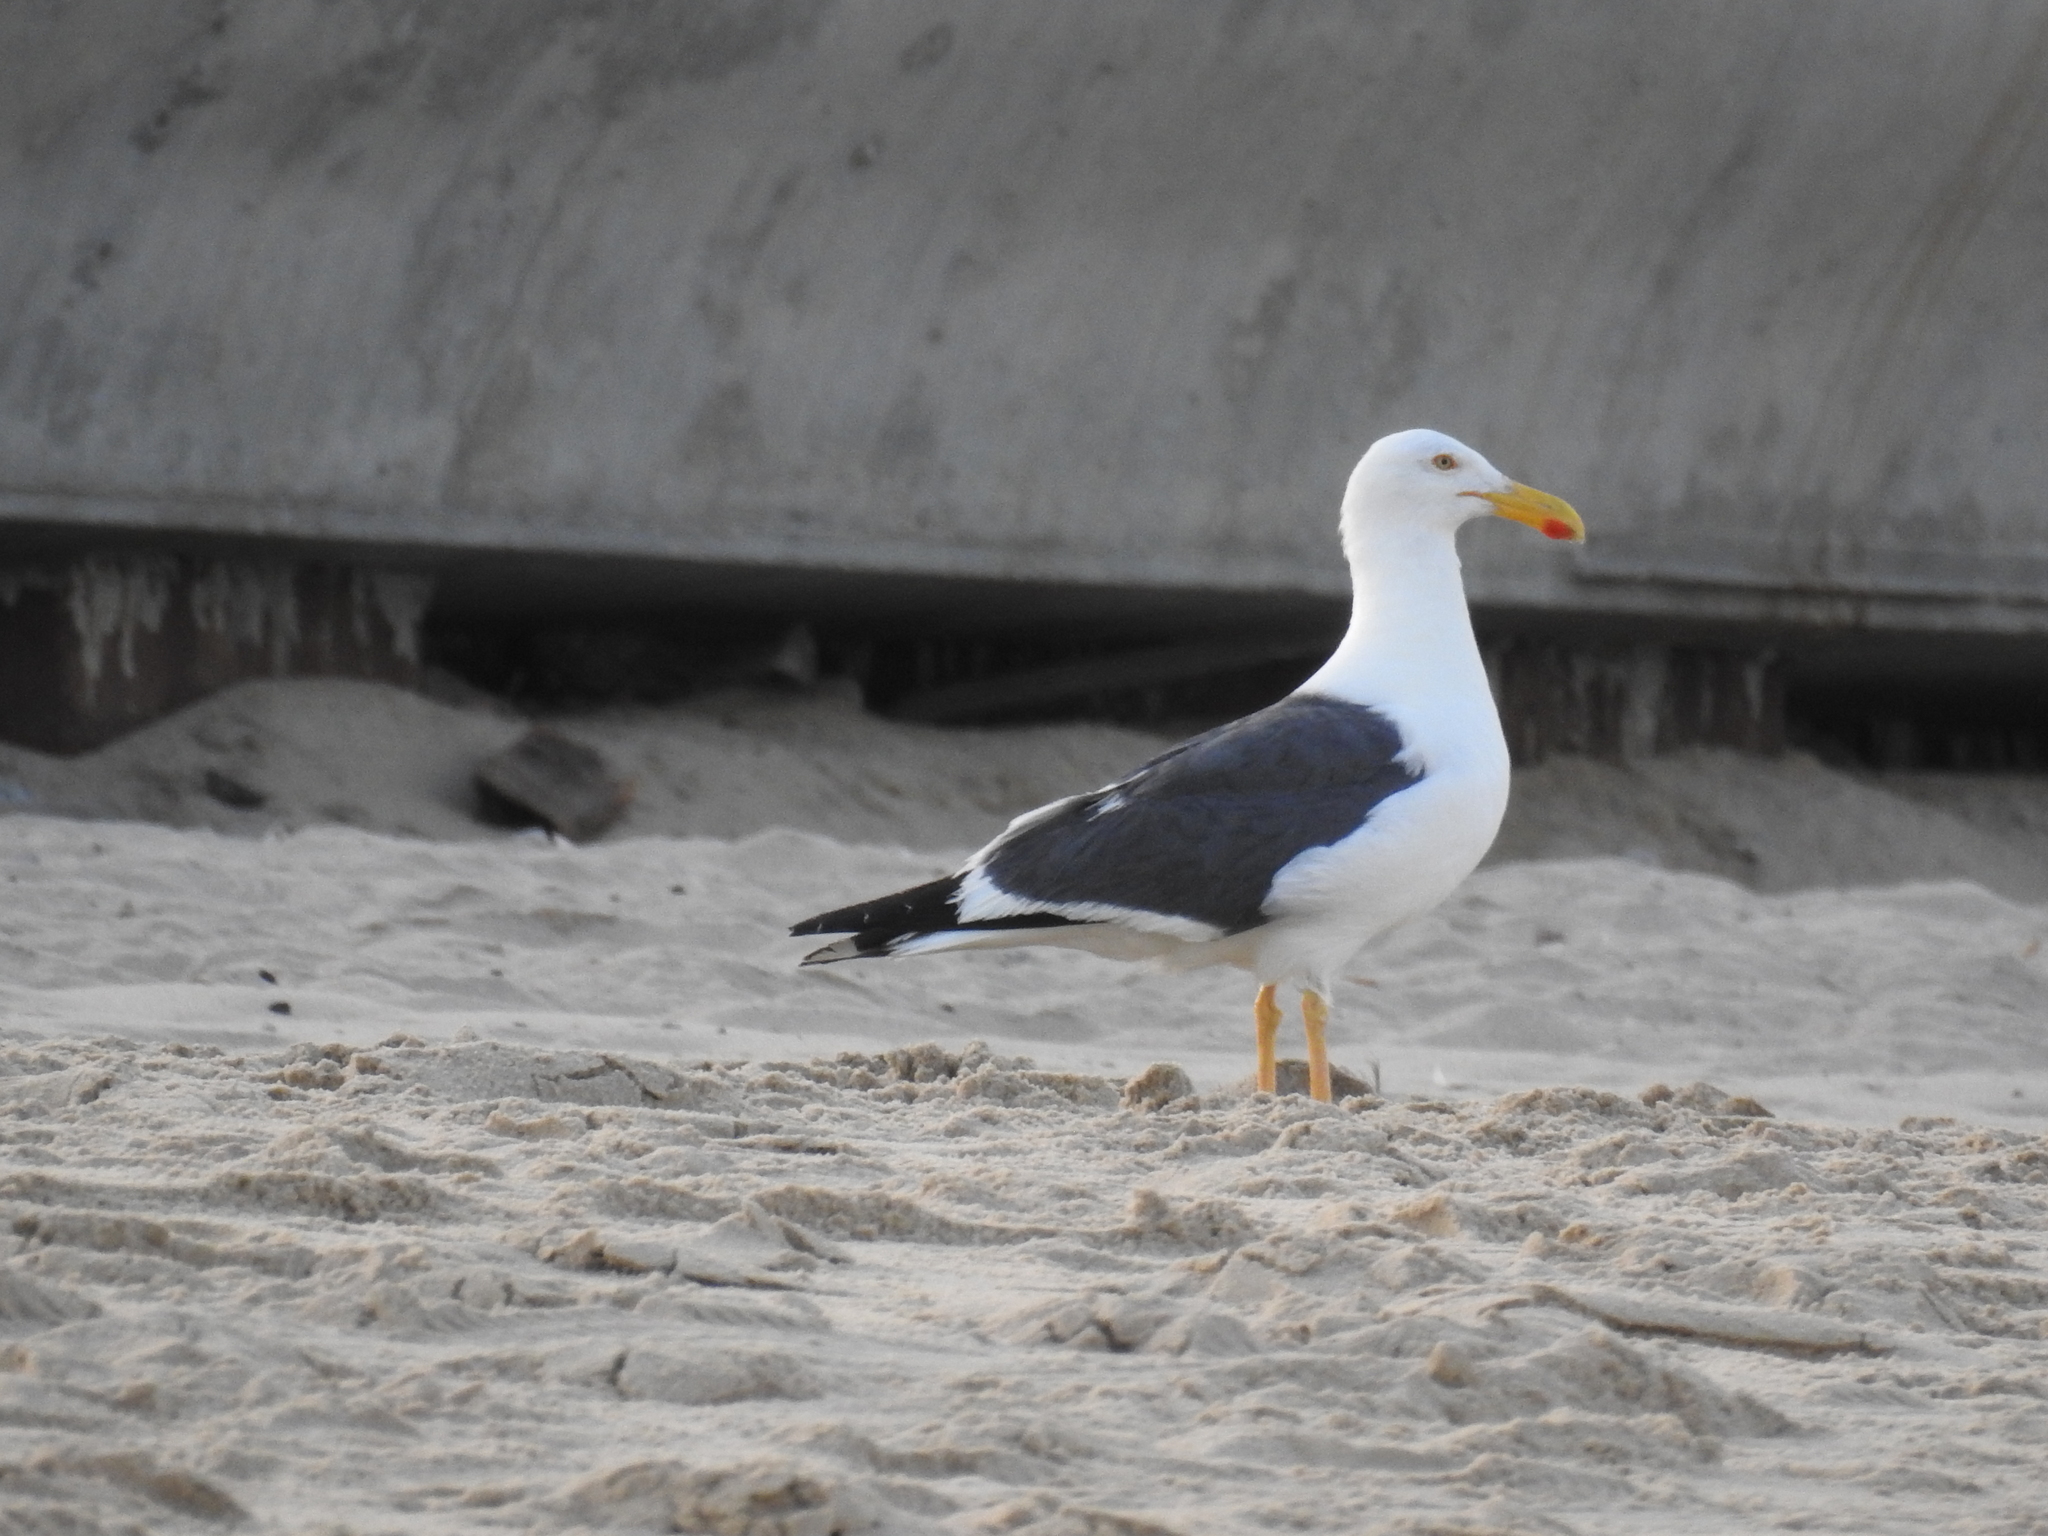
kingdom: Animalia
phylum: Chordata
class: Aves
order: Charadriiformes
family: Laridae
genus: Larus
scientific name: Larus livens
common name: Yellow-footed gull
